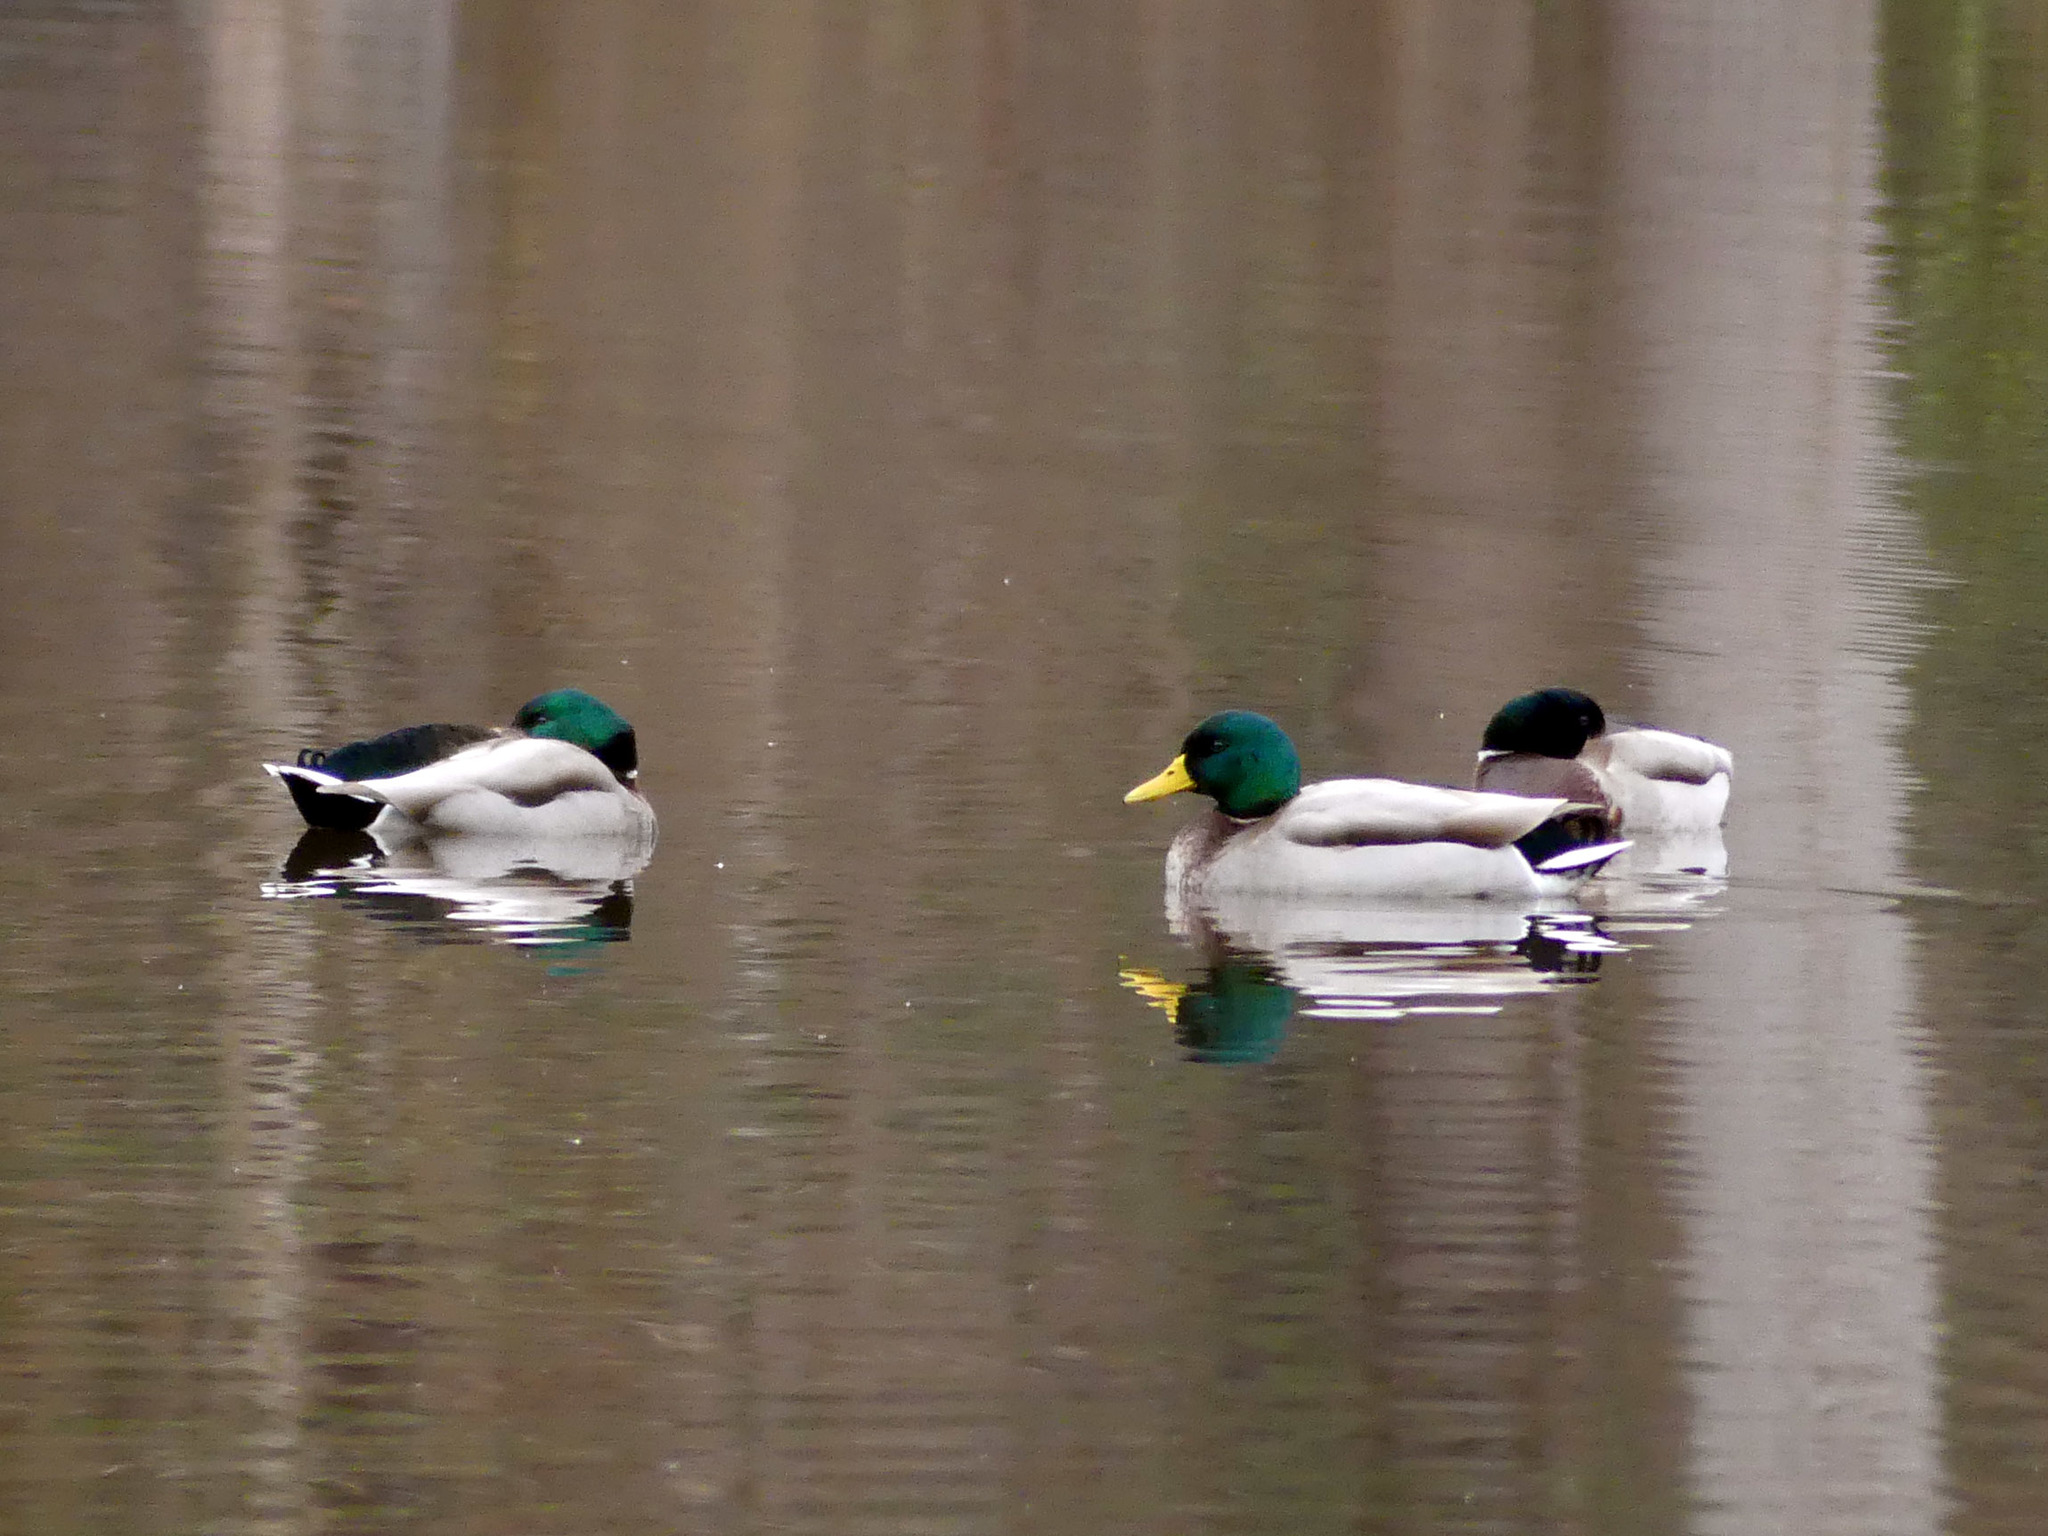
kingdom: Animalia
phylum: Chordata
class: Aves
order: Anseriformes
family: Anatidae
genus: Anas
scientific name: Anas platyrhynchos
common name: Mallard
